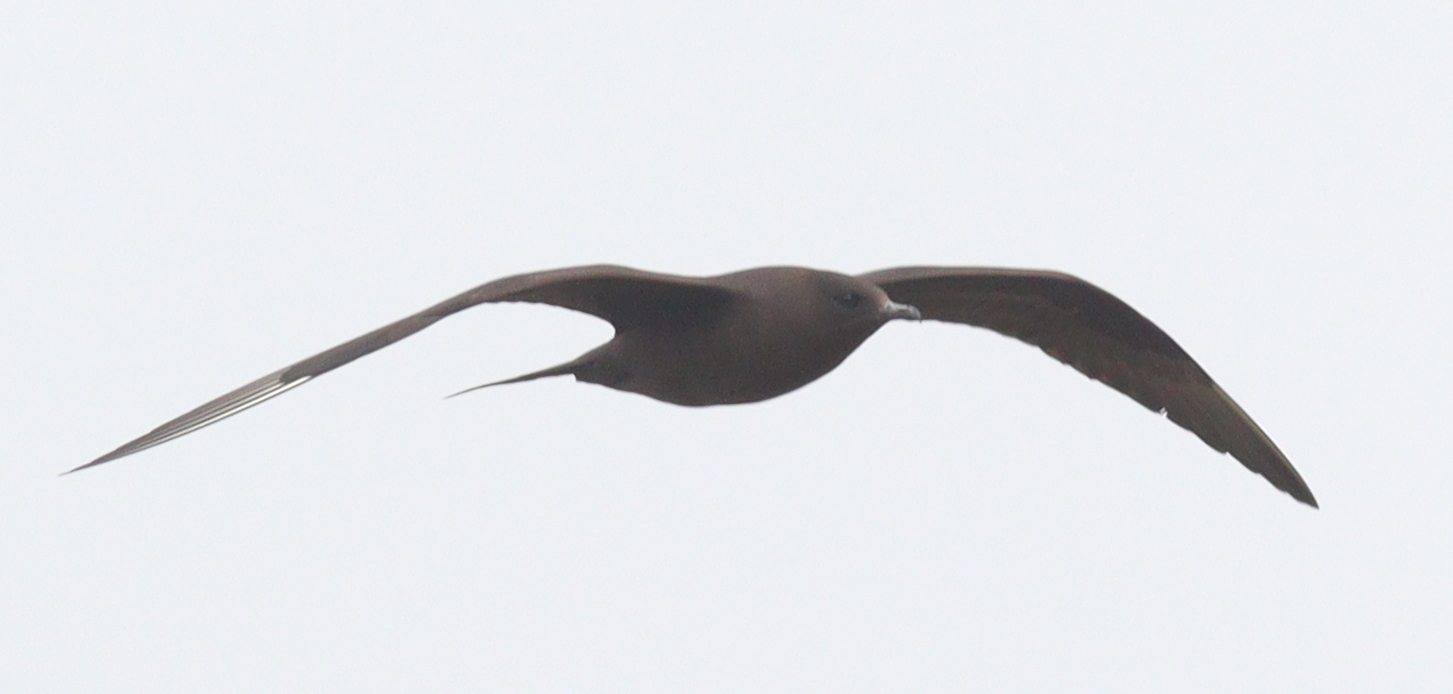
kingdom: Animalia
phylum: Chordata
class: Aves
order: Charadriiformes
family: Stercorariidae
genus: Stercorarius
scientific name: Stercorarius parasiticus
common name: Parasitic jaeger
